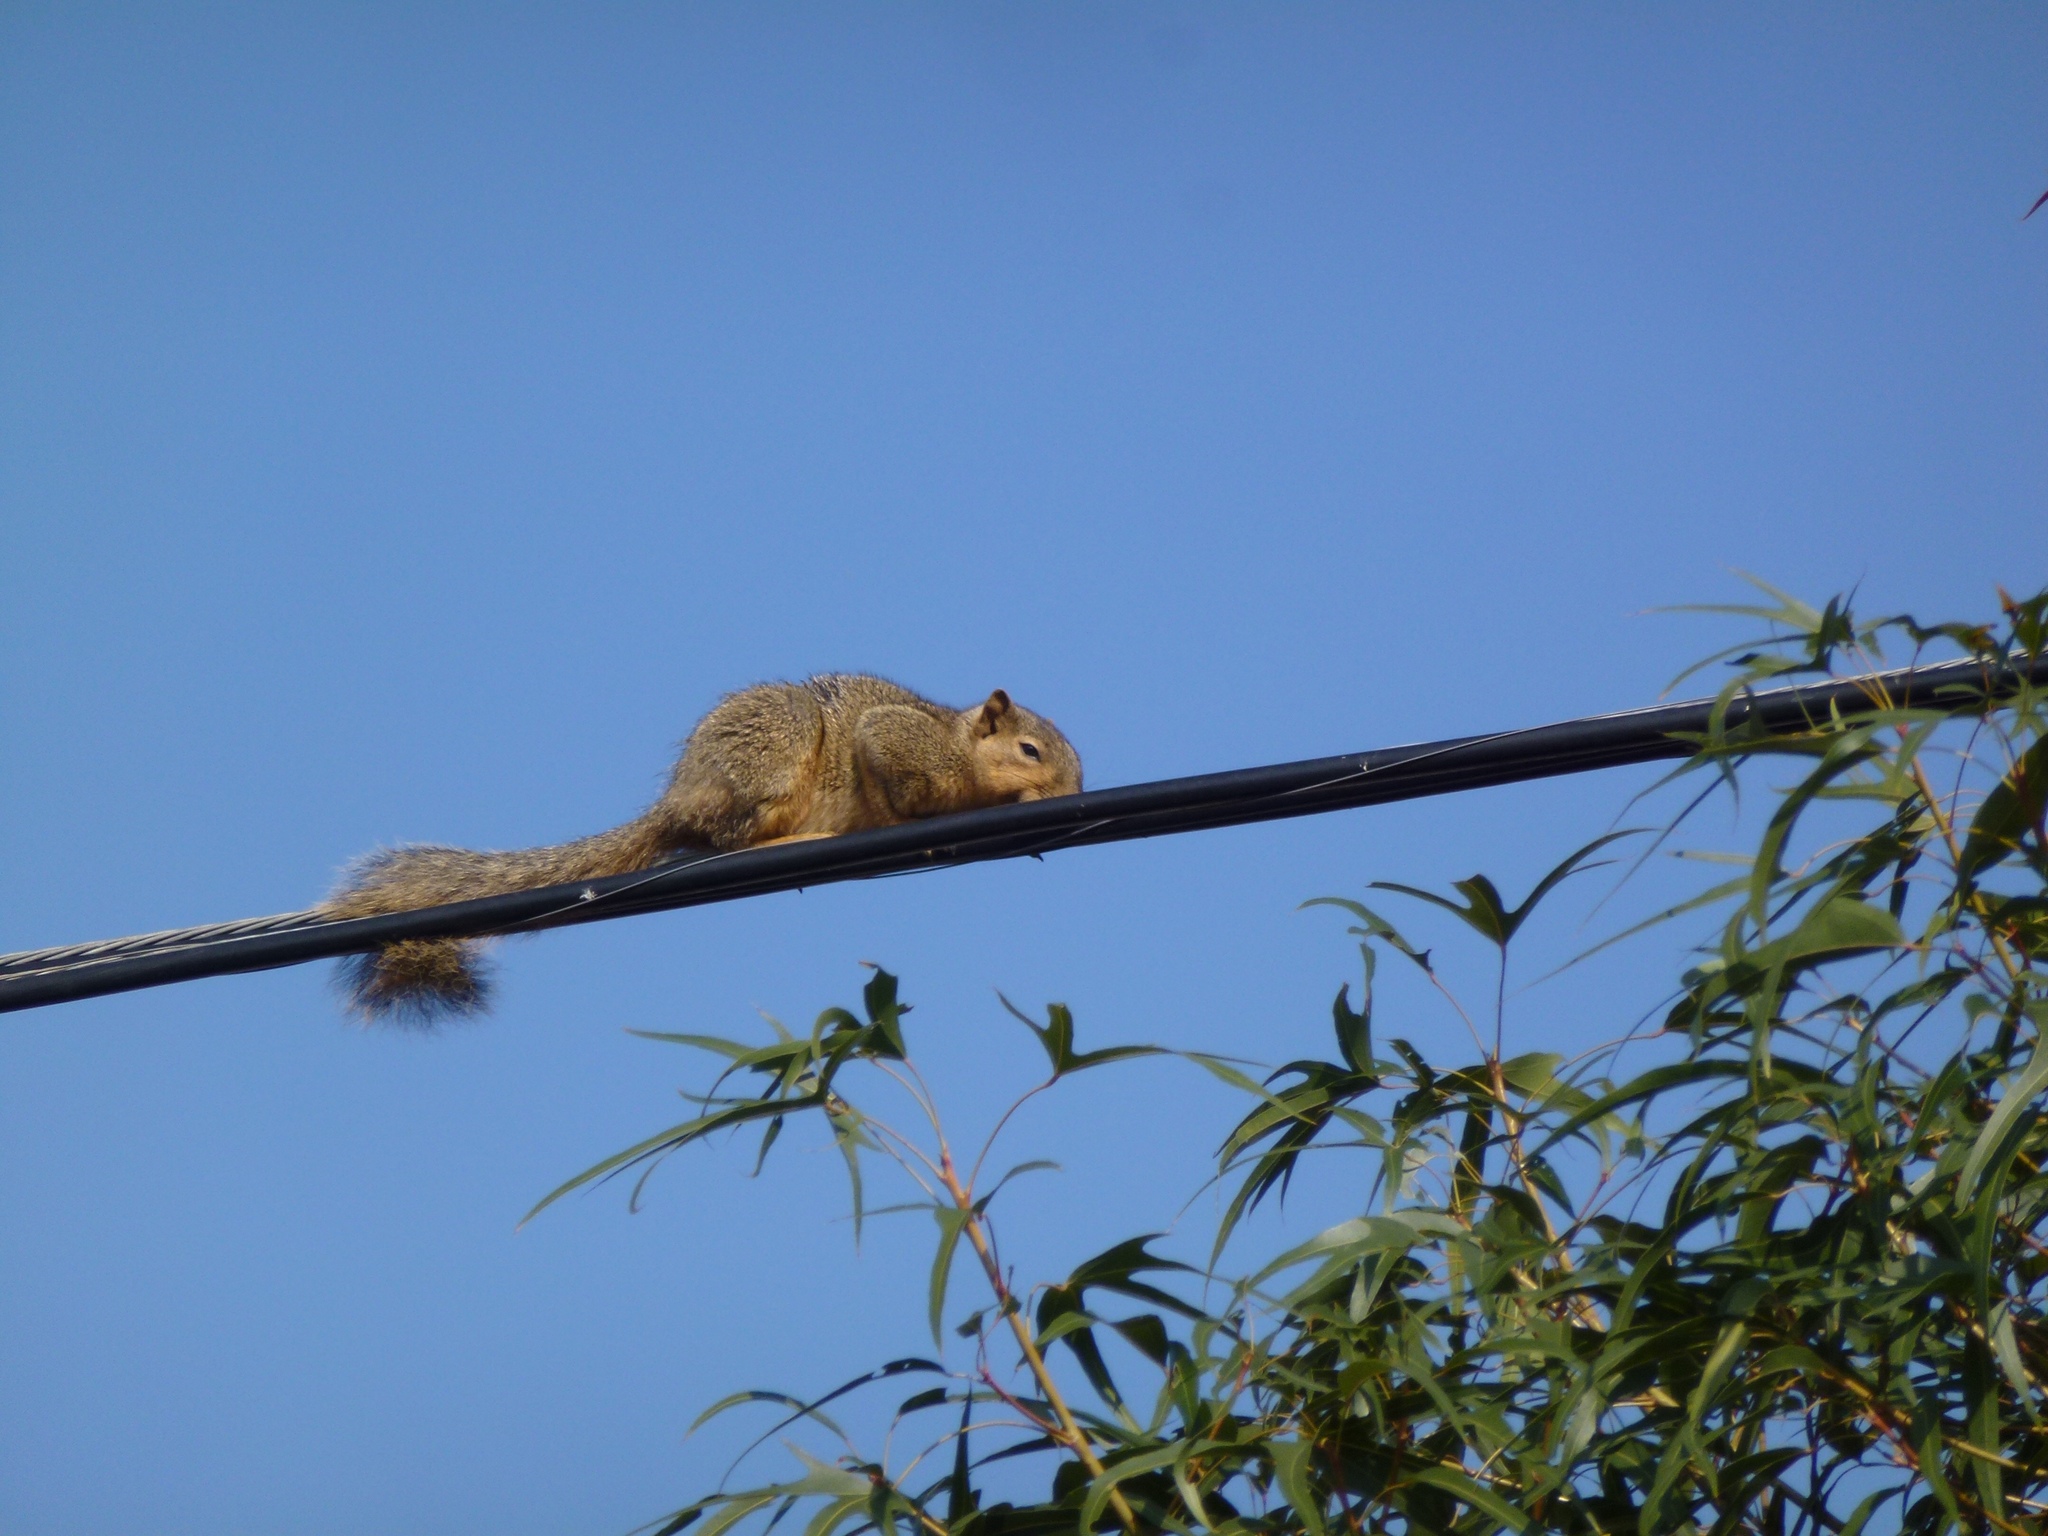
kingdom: Animalia
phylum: Chordata
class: Mammalia
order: Rodentia
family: Sciuridae
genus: Sciurus
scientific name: Sciurus niger
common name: Fox squirrel
